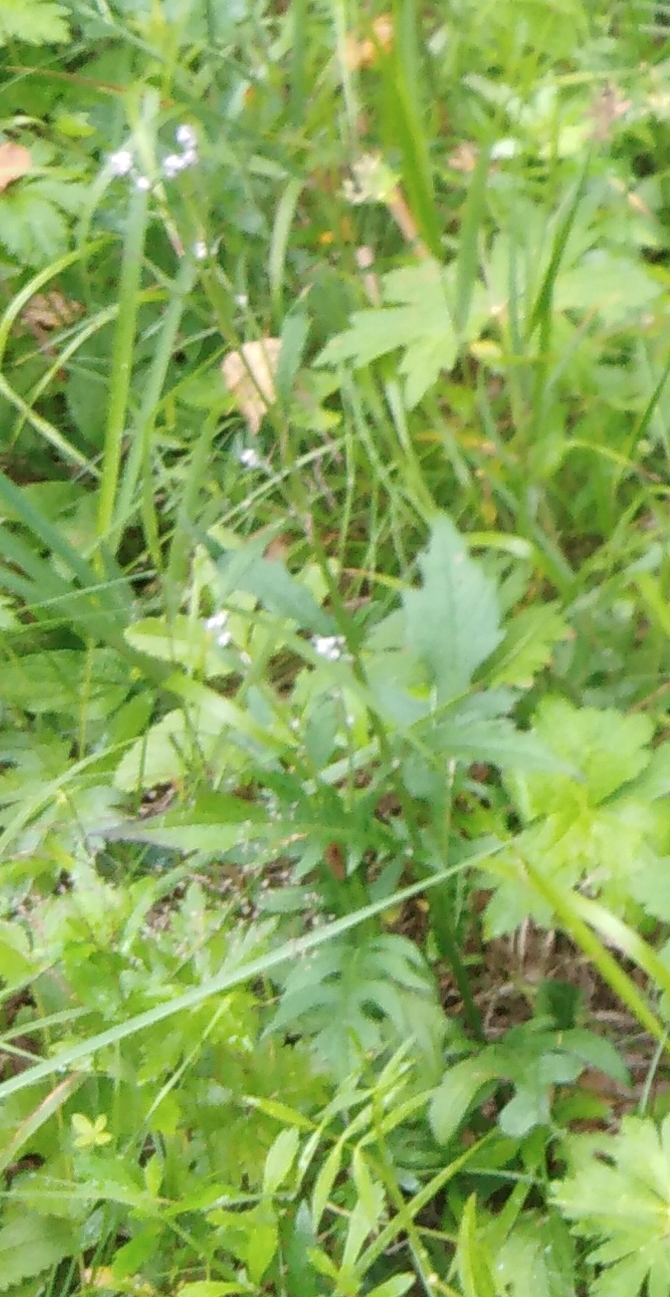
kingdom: Plantae
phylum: Tracheophyta
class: Magnoliopsida
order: Asterales
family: Asteraceae
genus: Saussurea
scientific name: Saussurea maximowiczii
